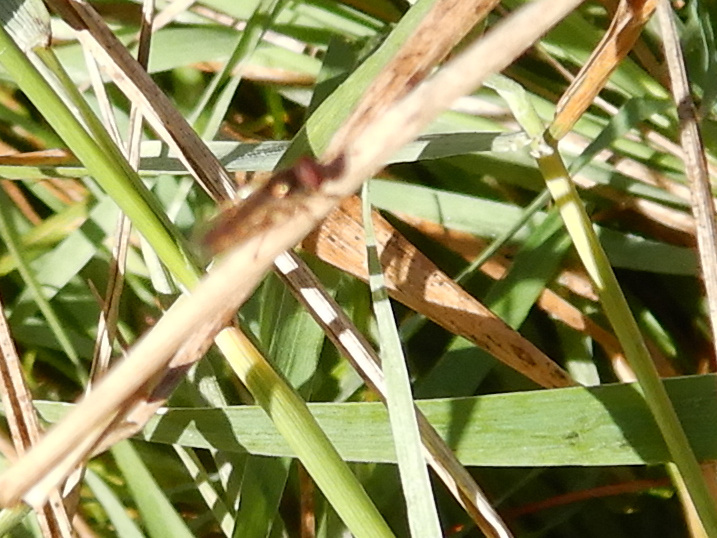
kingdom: Animalia
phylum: Arthropoda
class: Insecta
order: Diptera
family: Syrphidae
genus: Melanostoma
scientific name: Melanostoma fasciatum
